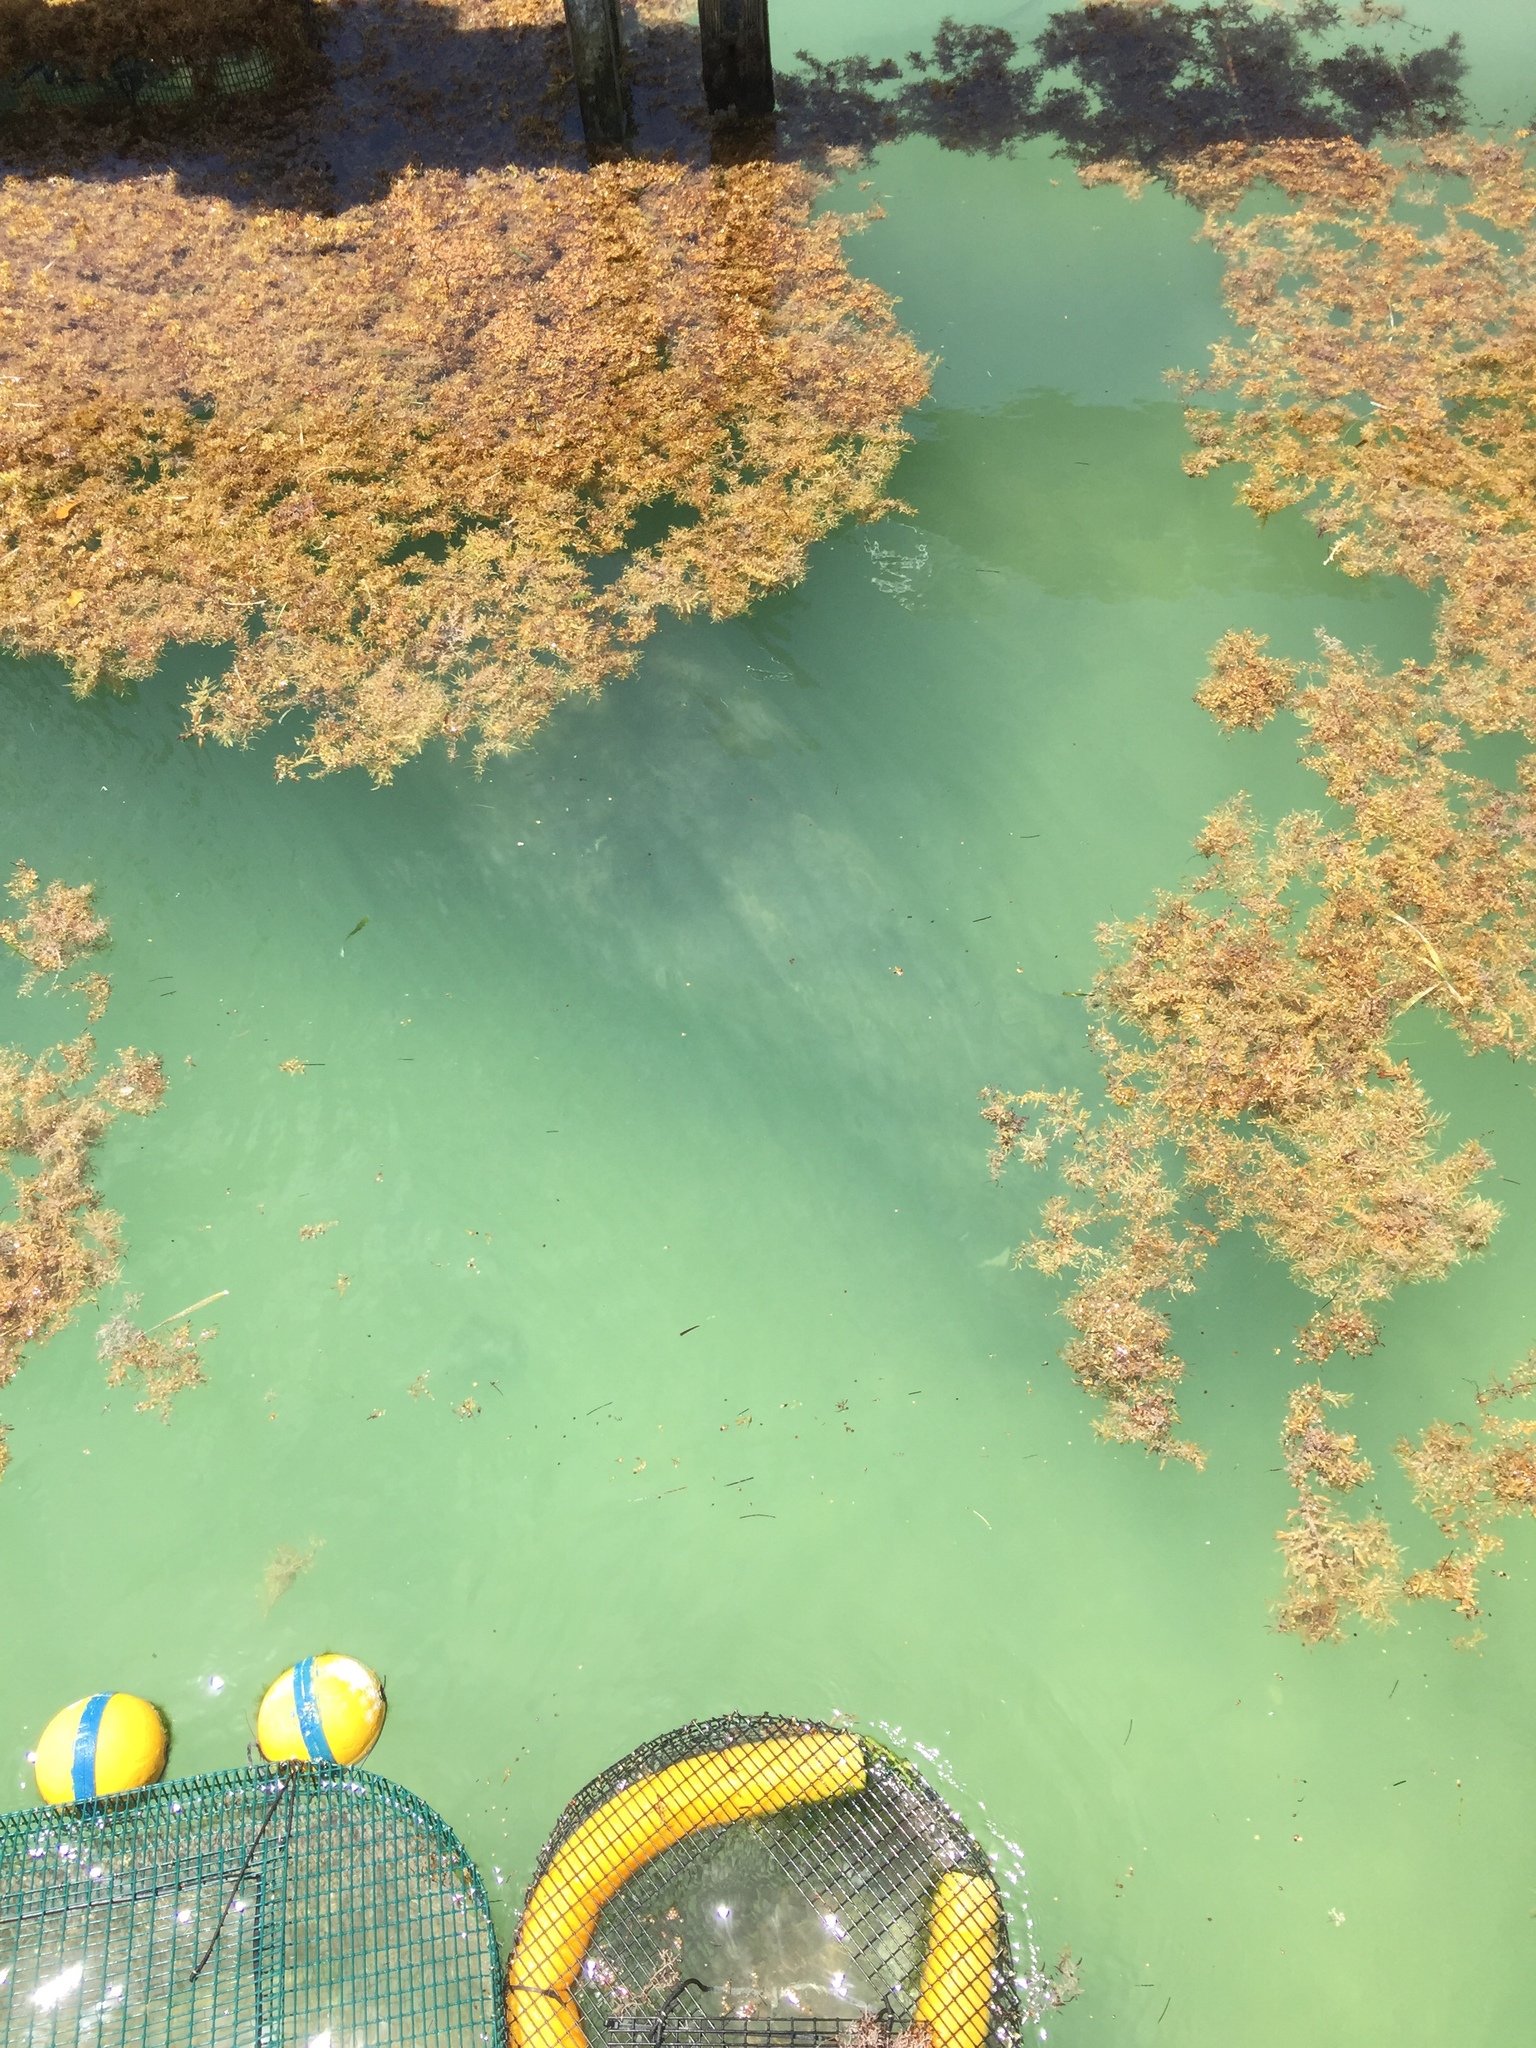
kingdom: Animalia
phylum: Chordata
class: Mammalia
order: Sirenia
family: Trichechidae
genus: Trichechus
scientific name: Trichechus manatus
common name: West indian manatee
